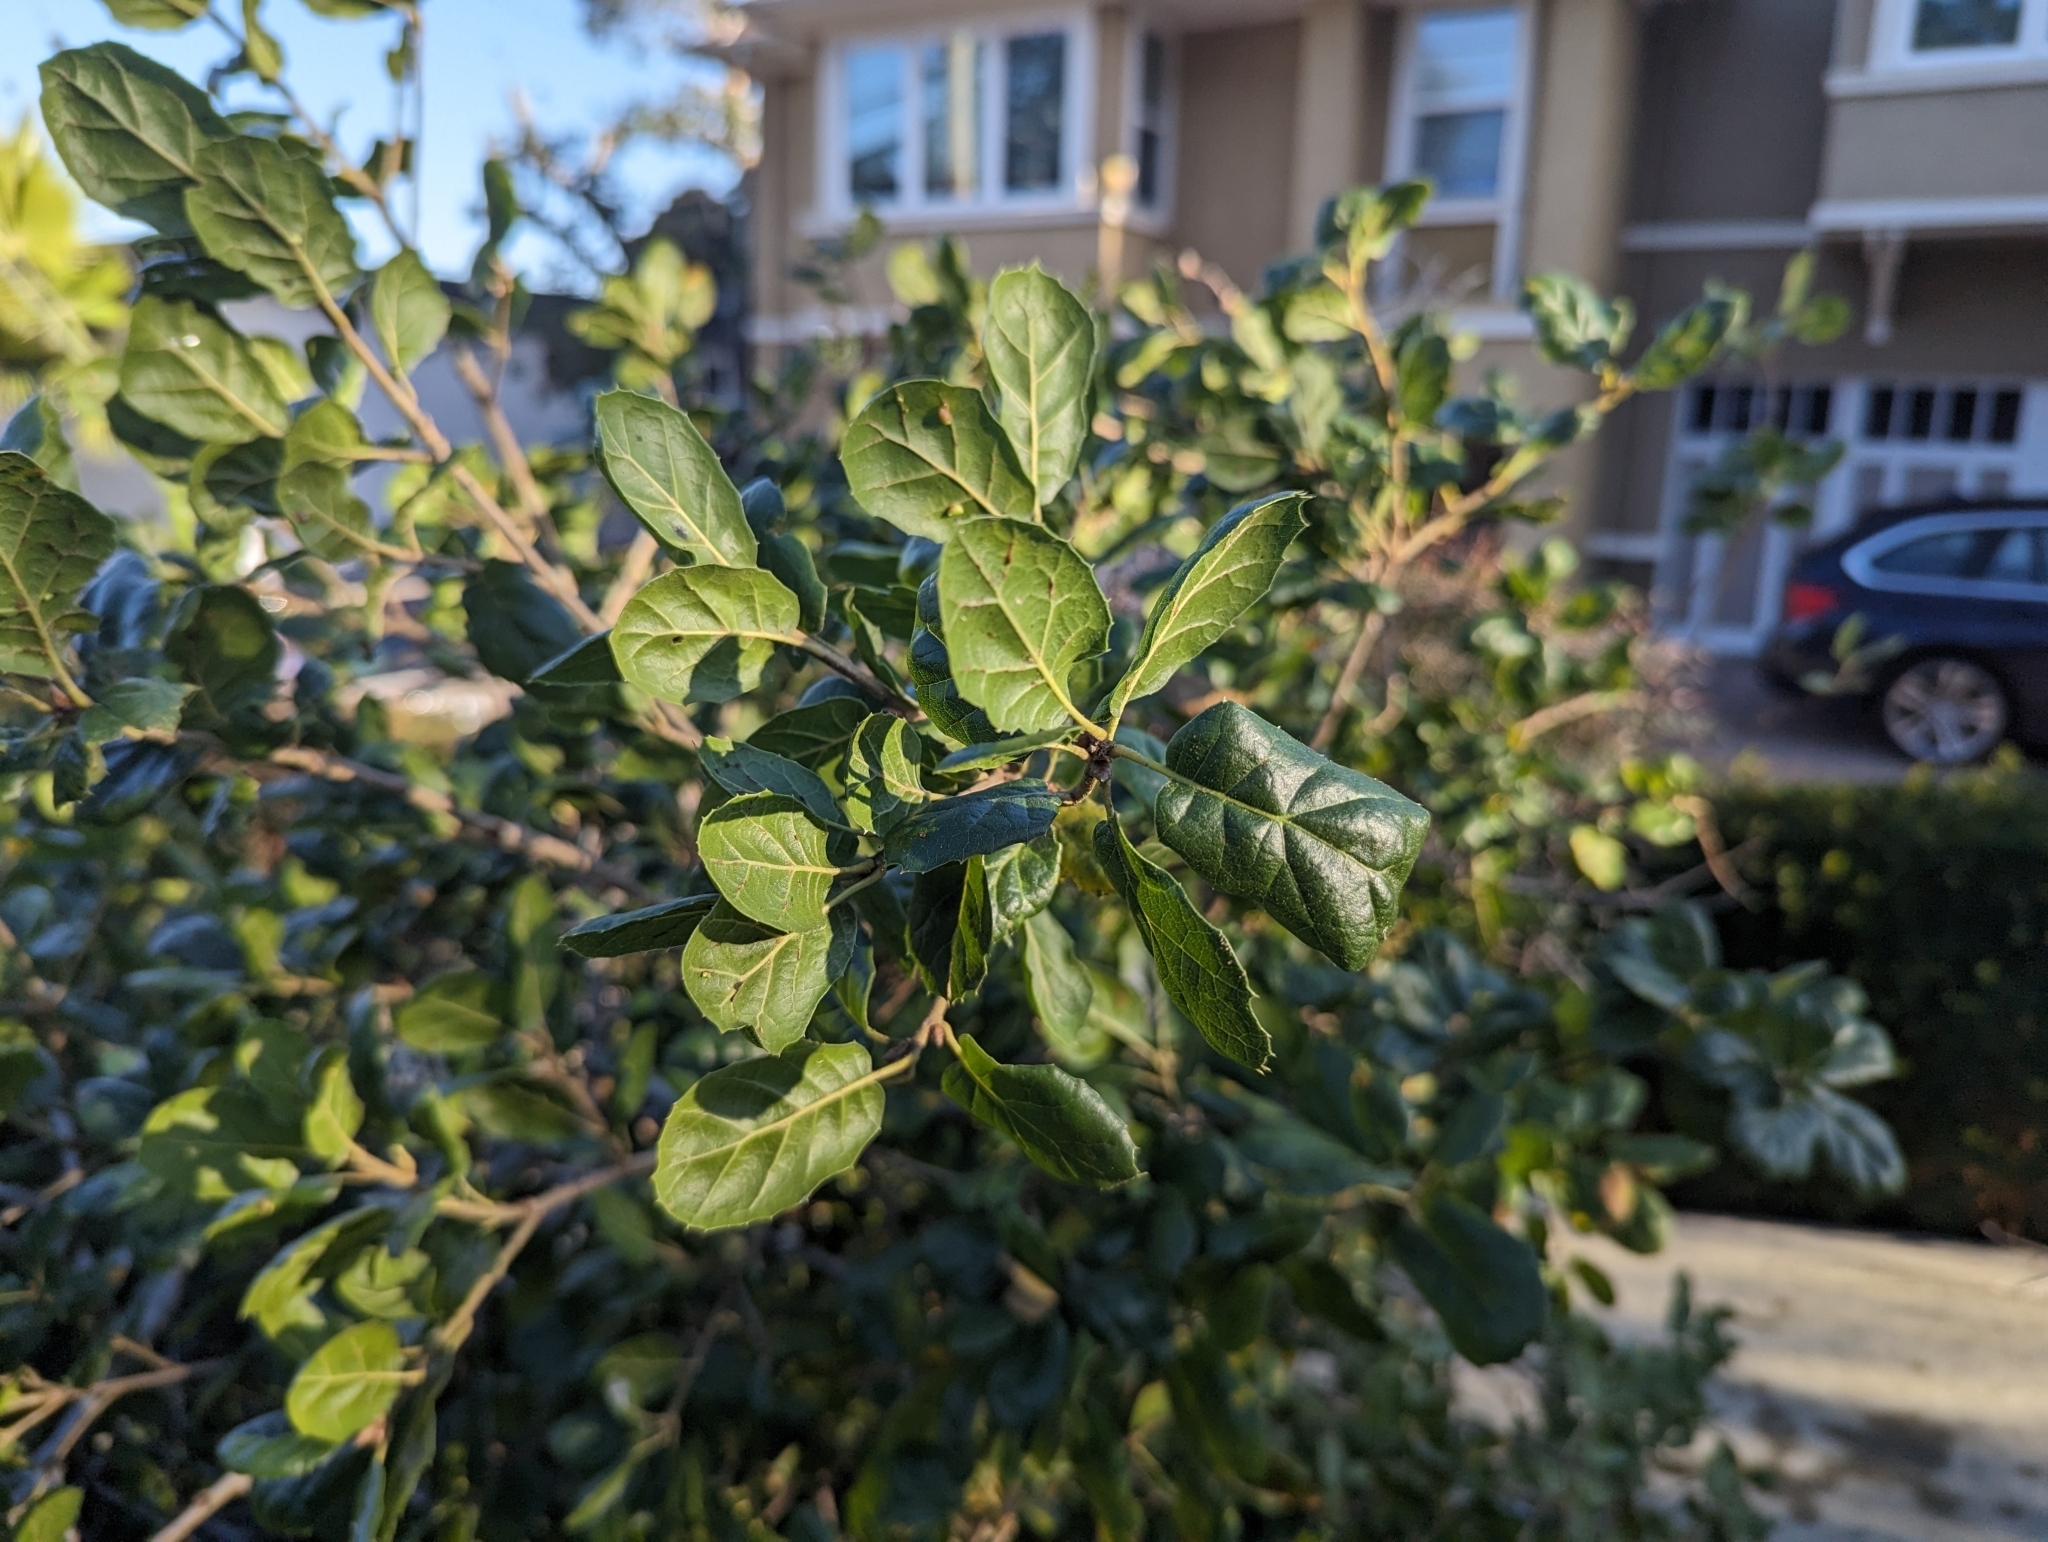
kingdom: Animalia
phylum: Arthropoda
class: Insecta
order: Hymenoptera
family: Cynipidae
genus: Dryocosmus
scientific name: Dryocosmus
